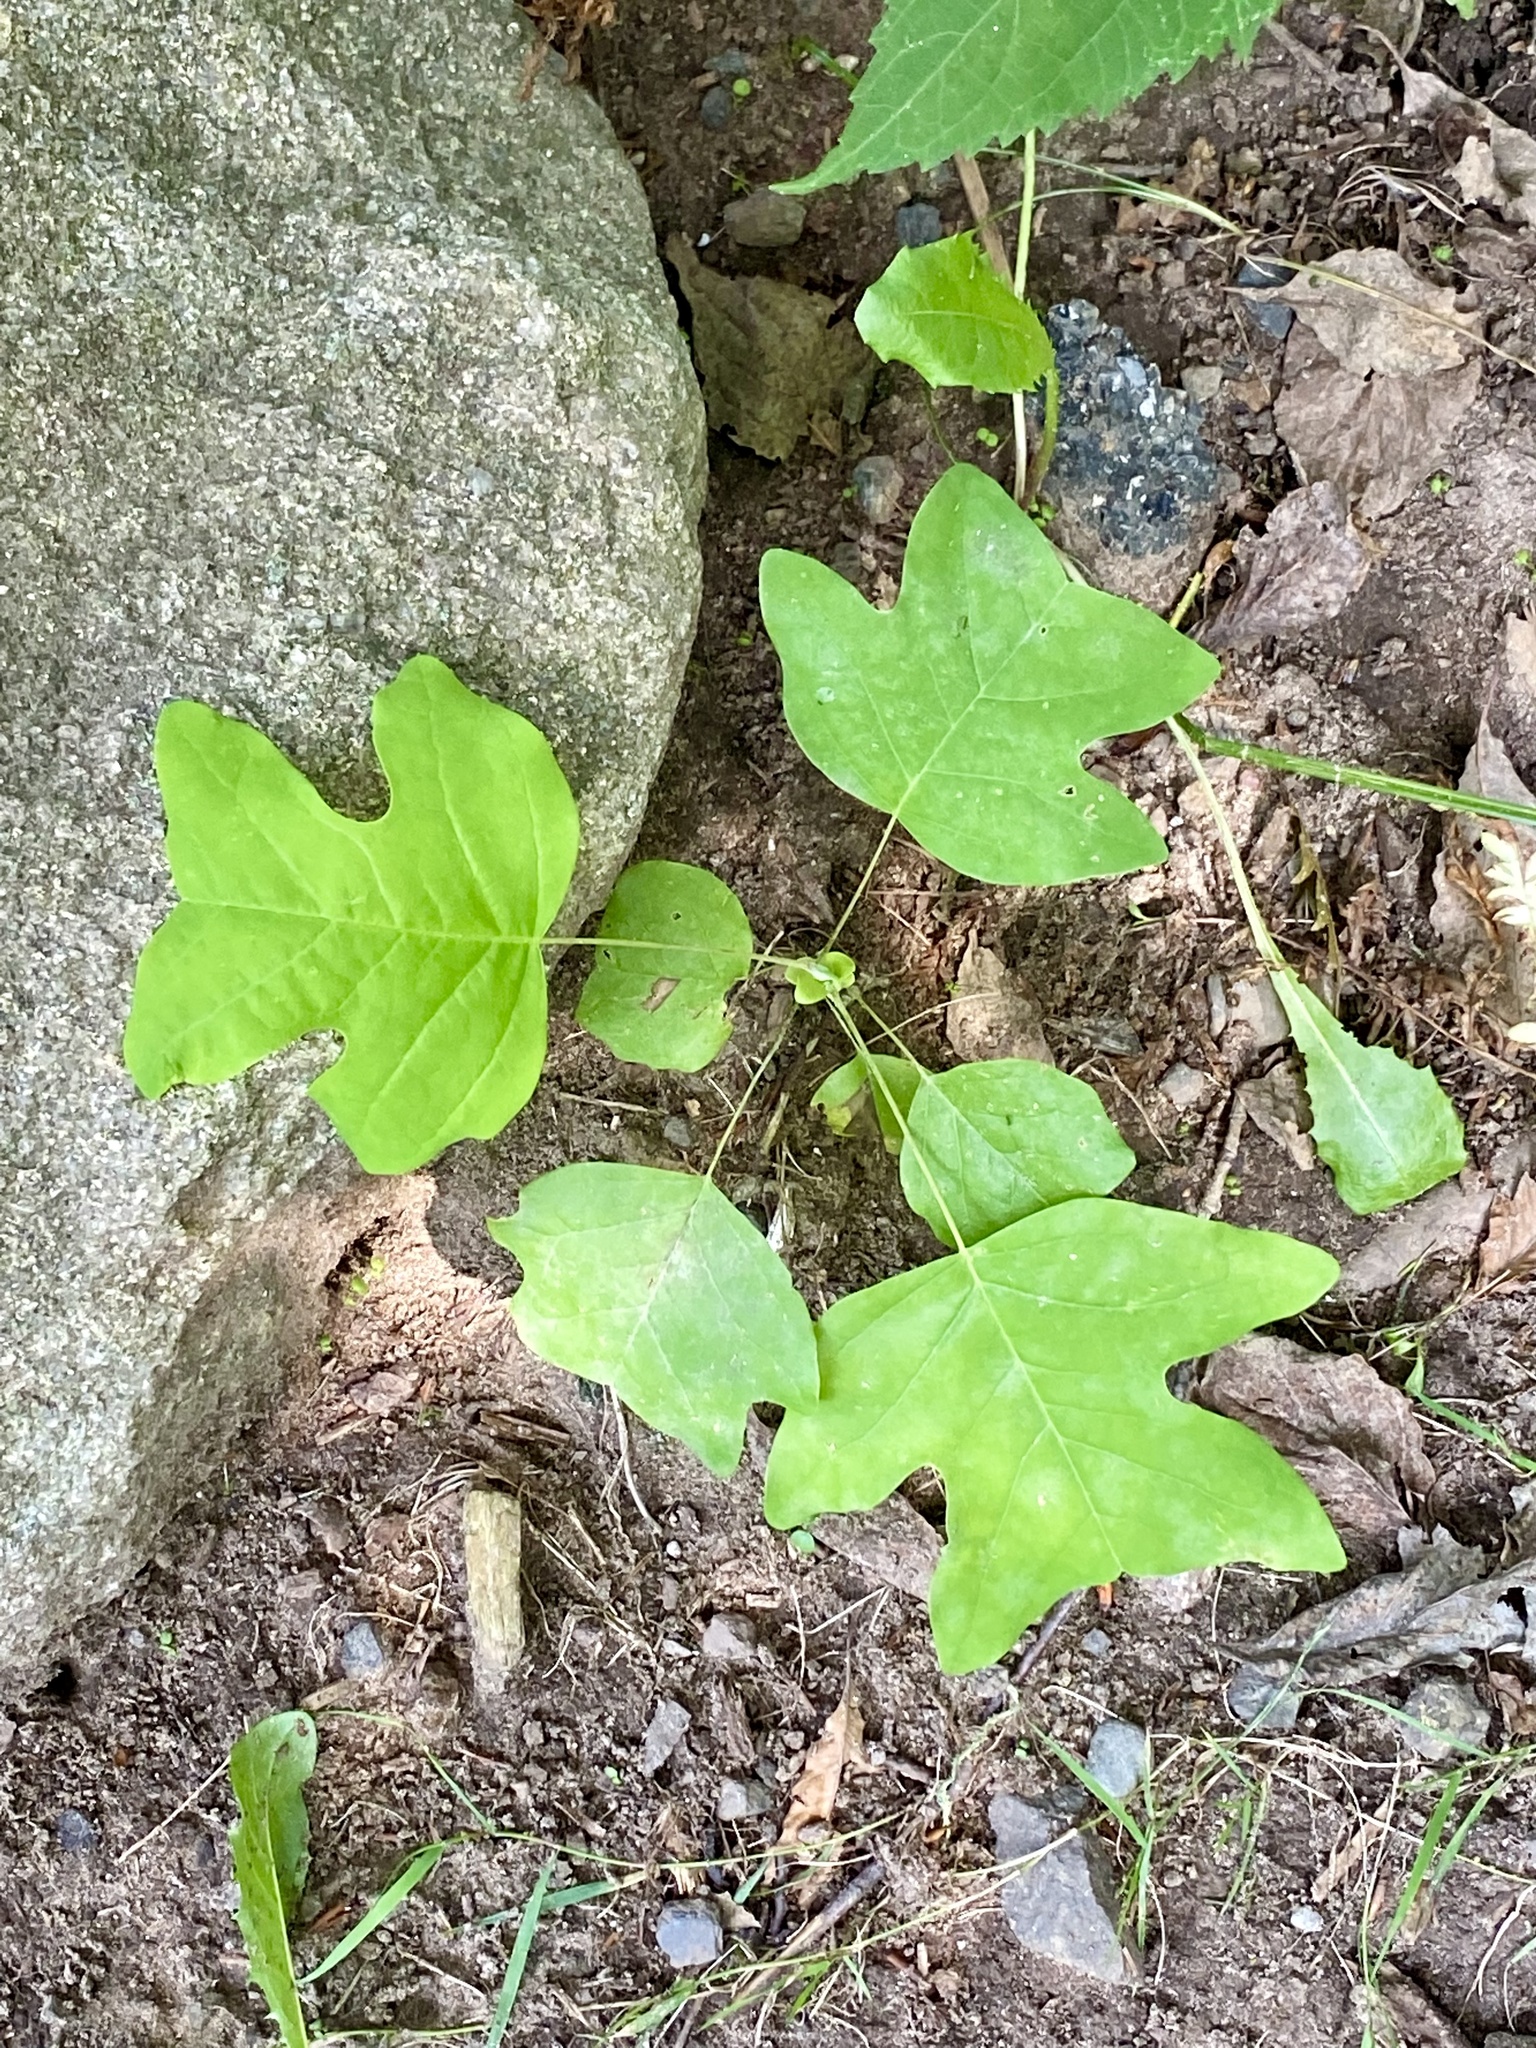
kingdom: Plantae
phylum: Tracheophyta
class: Magnoliopsida
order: Magnoliales
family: Magnoliaceae
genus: Liriodendron
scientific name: Liriodendron tulipifera
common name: Tulip tree
